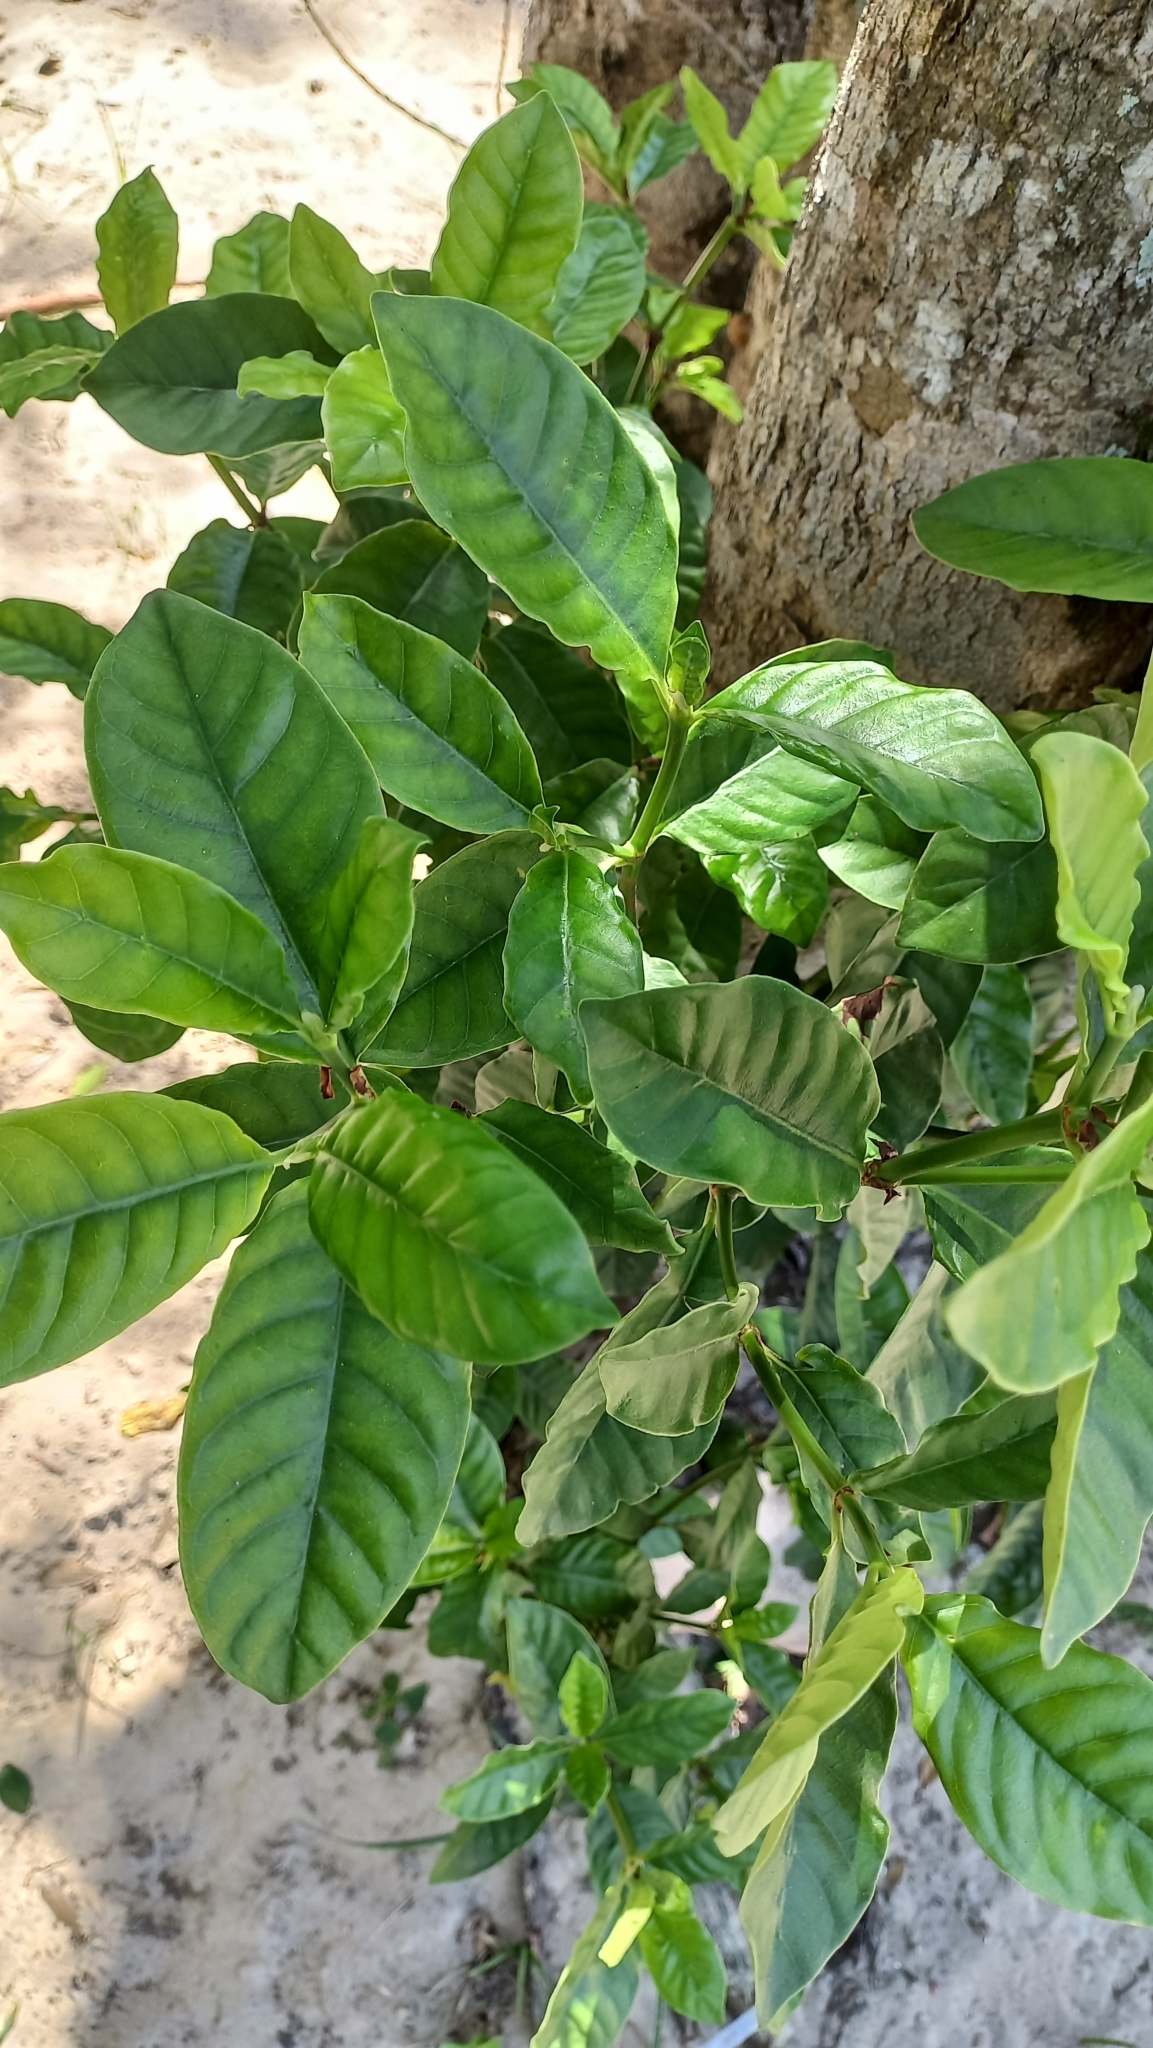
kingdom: Plantae
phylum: Tracheophyta
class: Magnoliopsida
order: Gentianales
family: Rubiaceae
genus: Psychotria
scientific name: Psychotria carthagenensis
